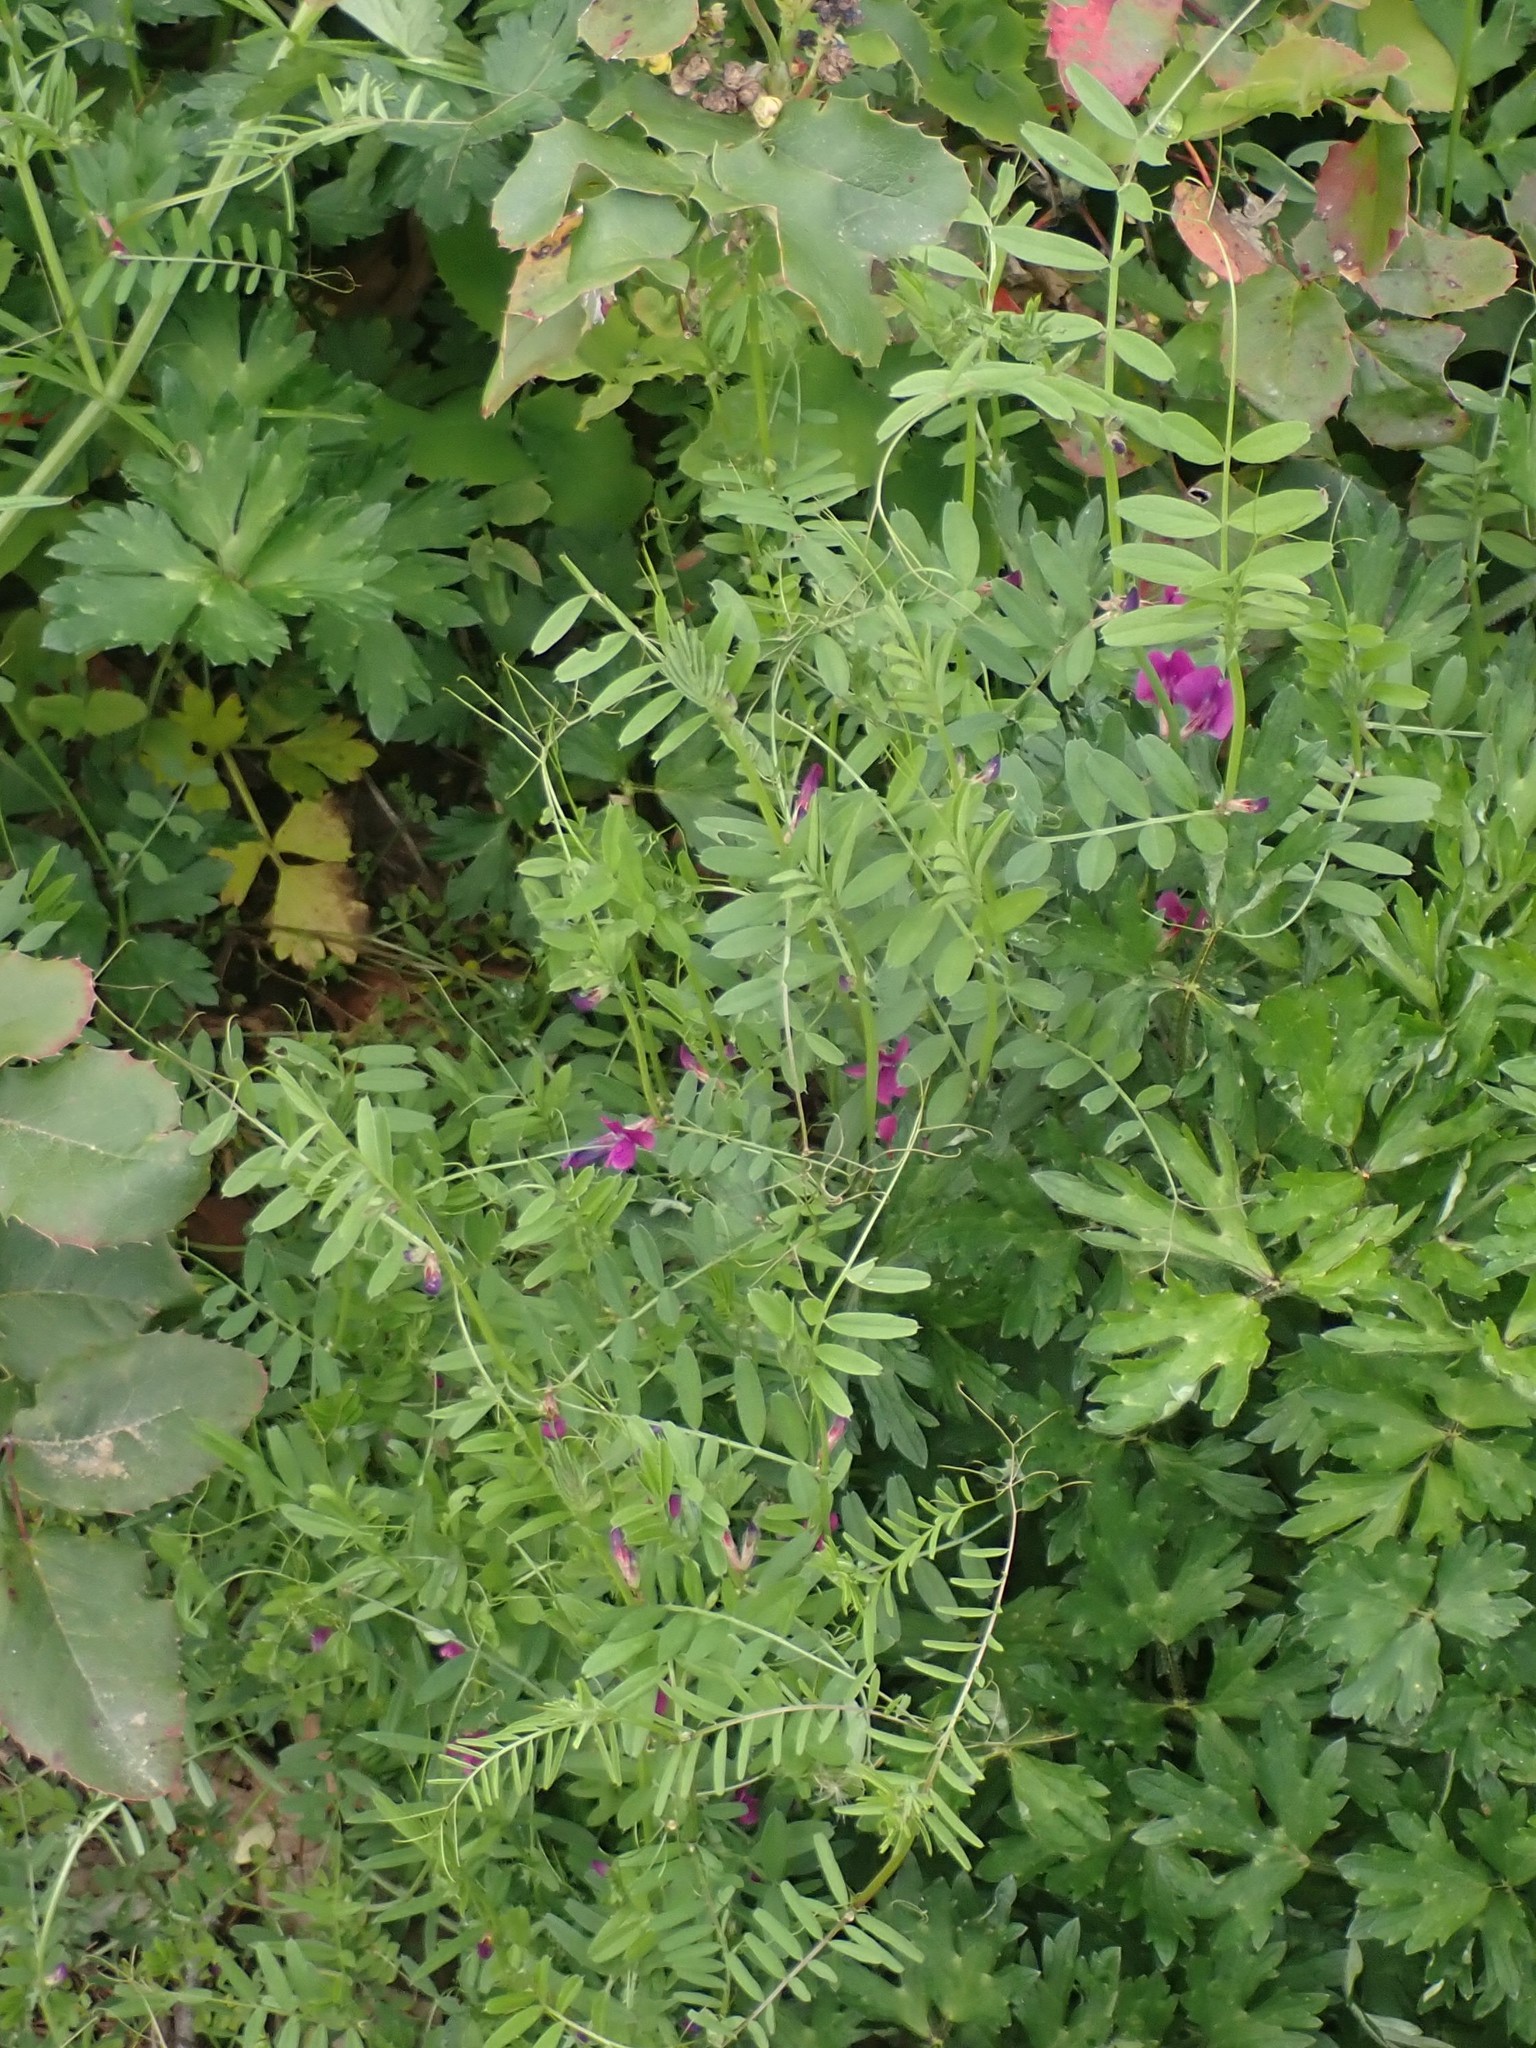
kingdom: Plantae
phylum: Tracheophyta
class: Magnoliopsida
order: Fabales
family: Fabaceae
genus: Vicia
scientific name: Vicia sativa
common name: Garden vetch
